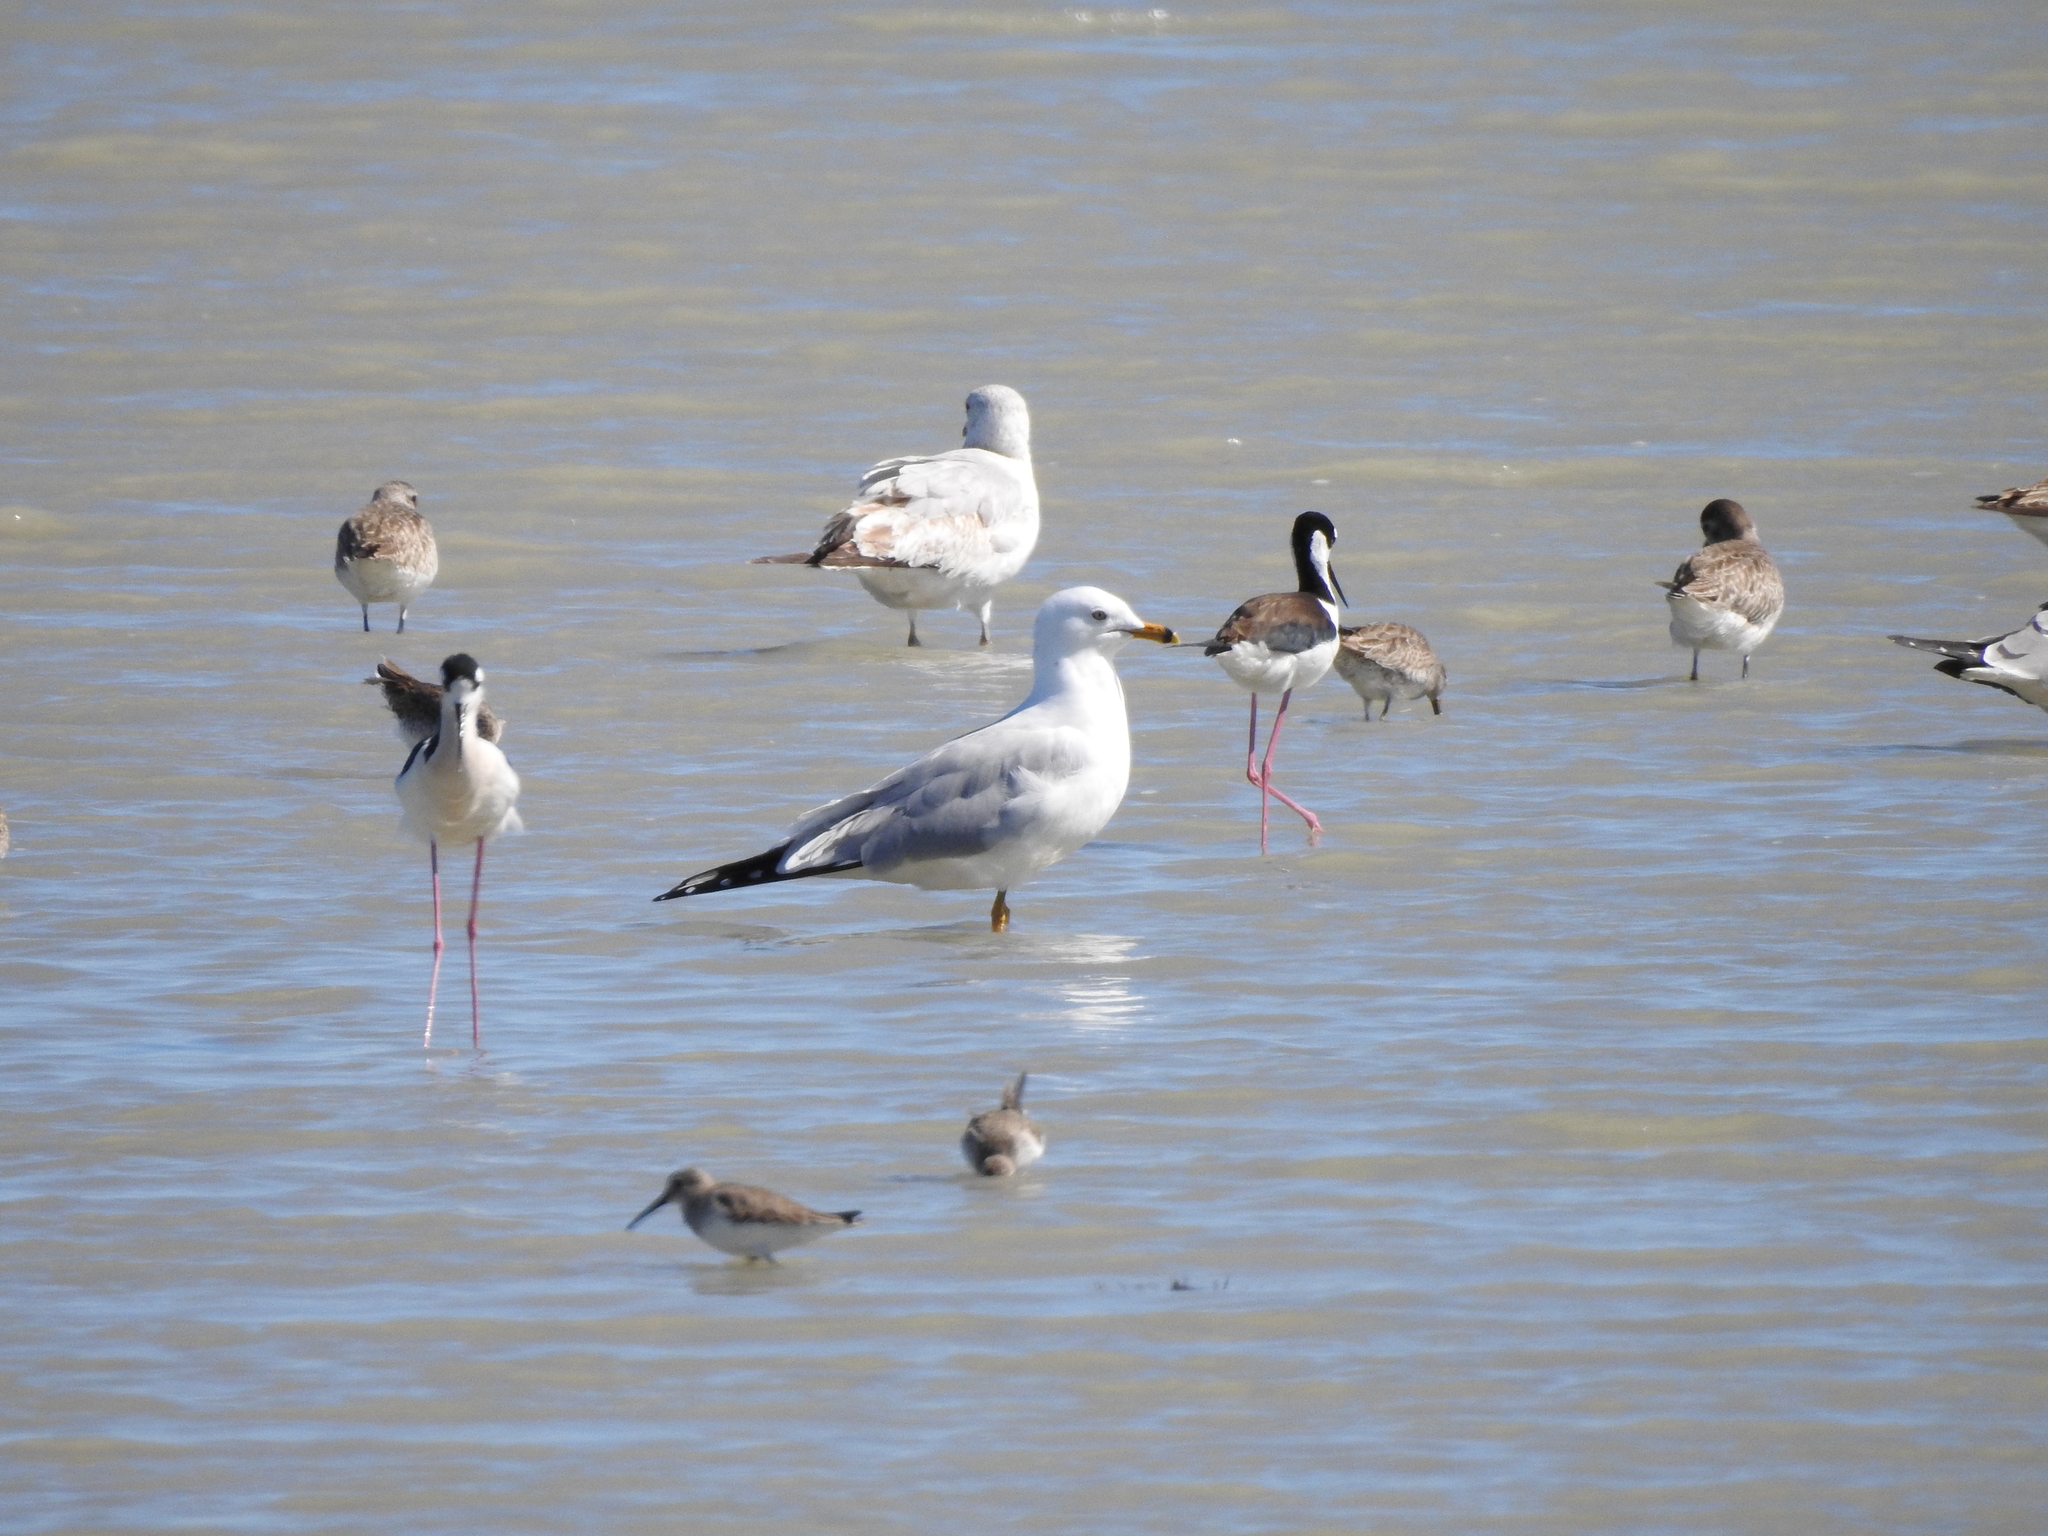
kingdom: Animalia
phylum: Chordata
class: Aves
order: Charadriiformes
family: Laridae
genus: Larus
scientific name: Larus delawarensis
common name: Ring-billed gull
